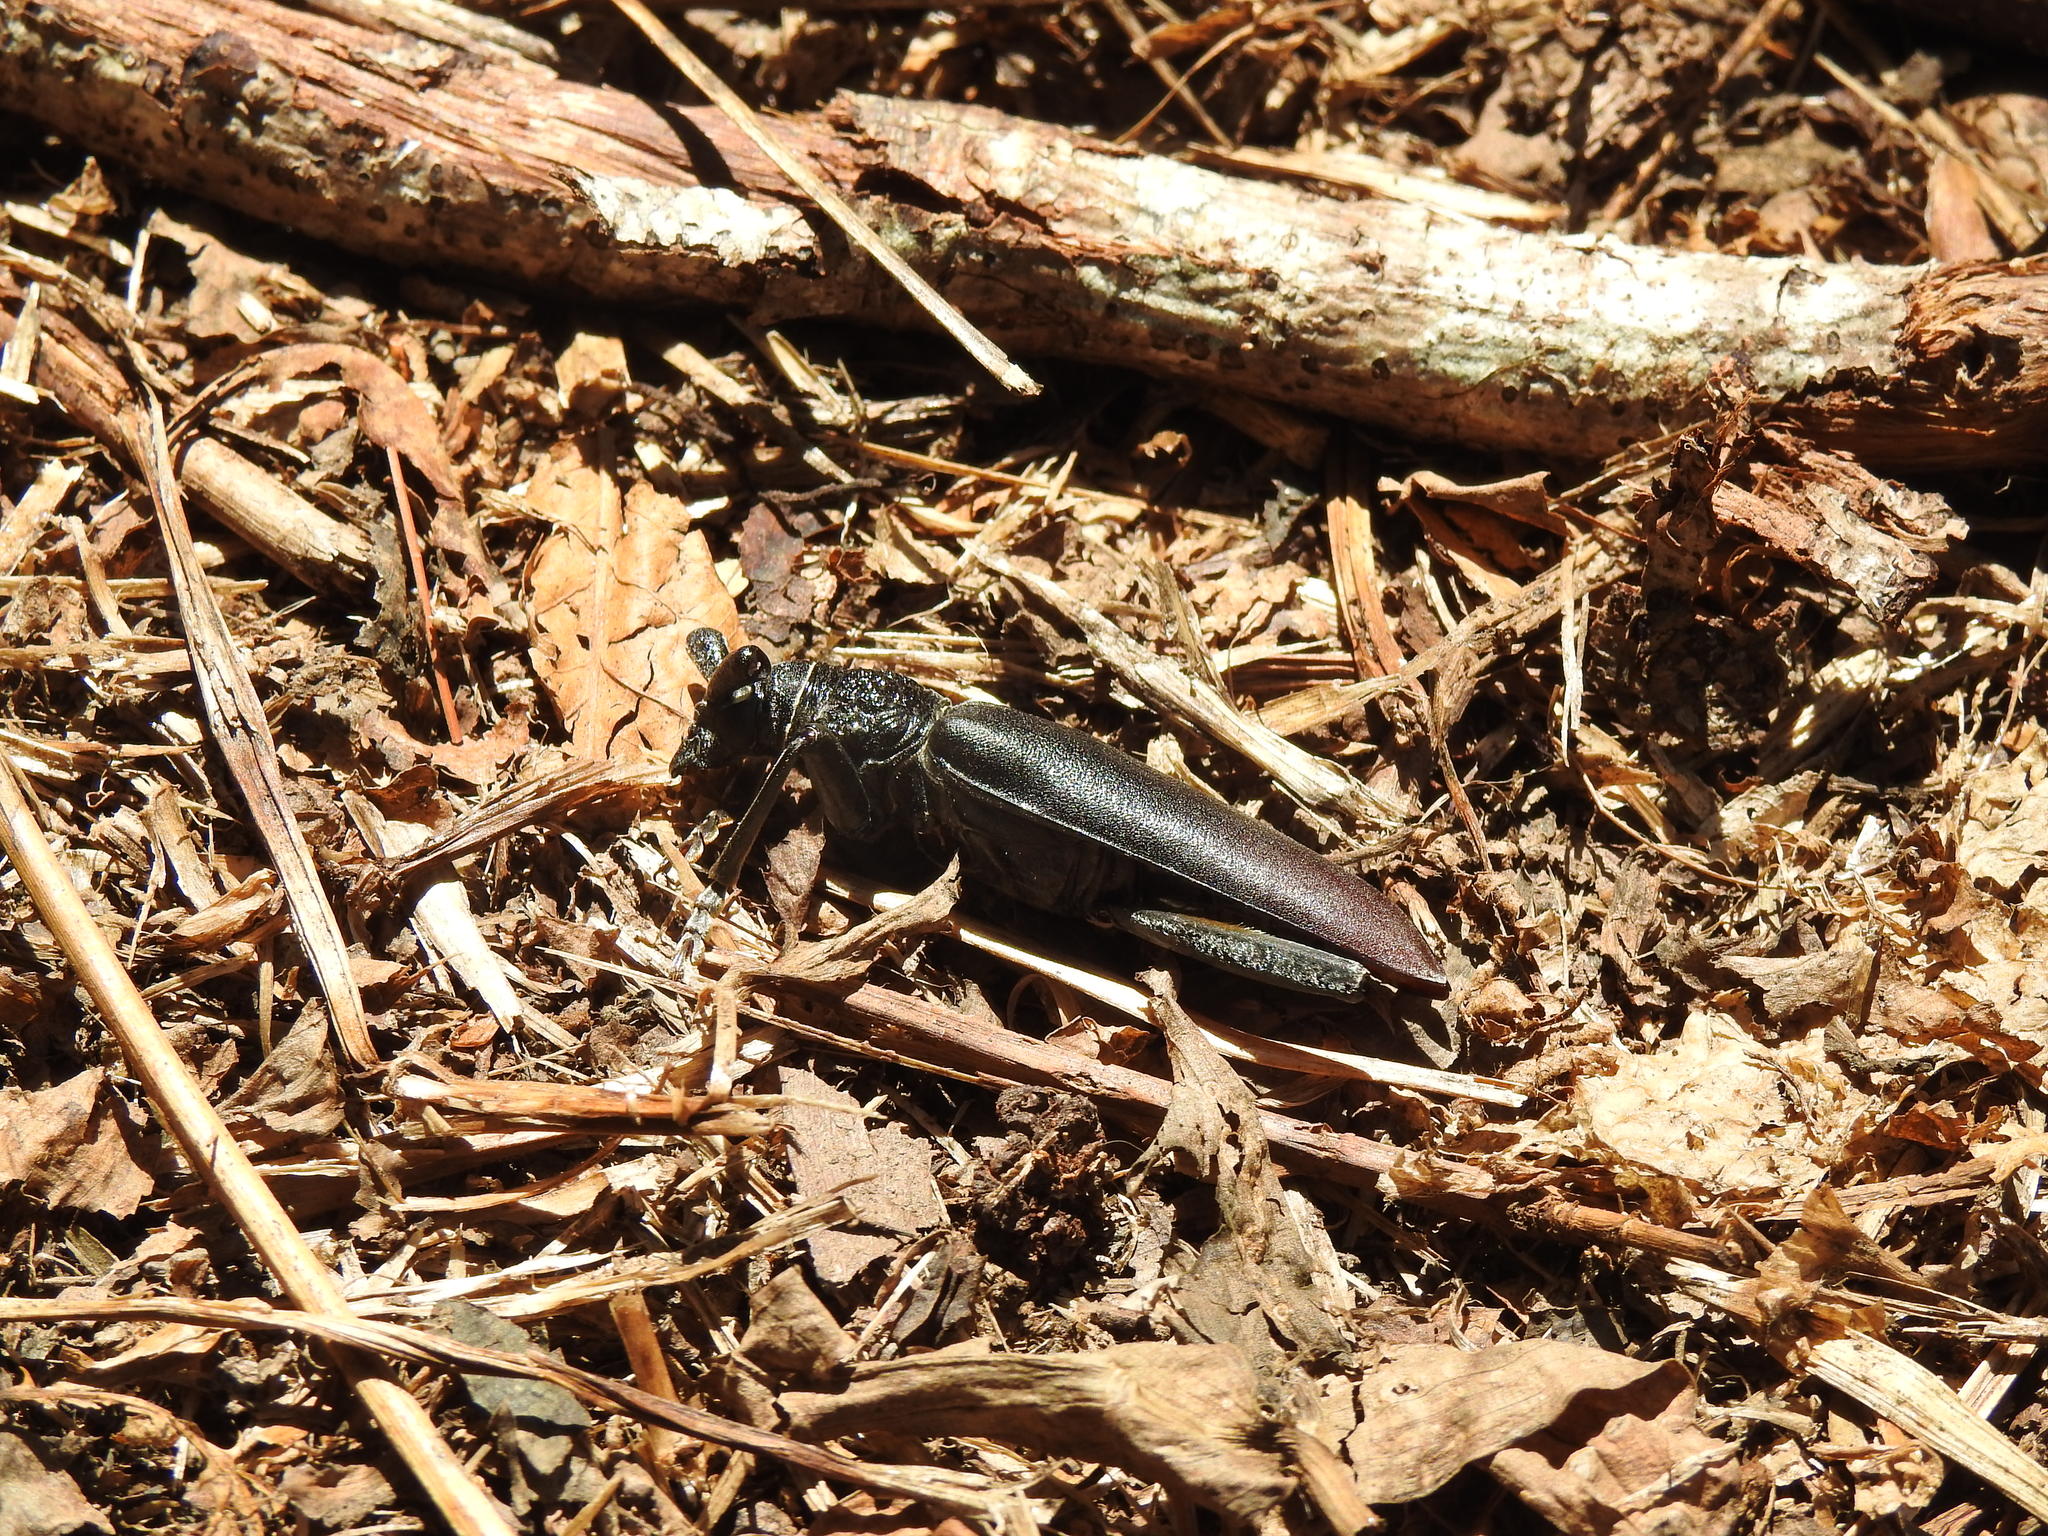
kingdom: Animalia
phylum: Arthropoda
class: Insecta
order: Coleoptera
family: Cerambycidae
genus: Cerambyx
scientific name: Cerambyx cerdo
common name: Cerambyx longicorn
